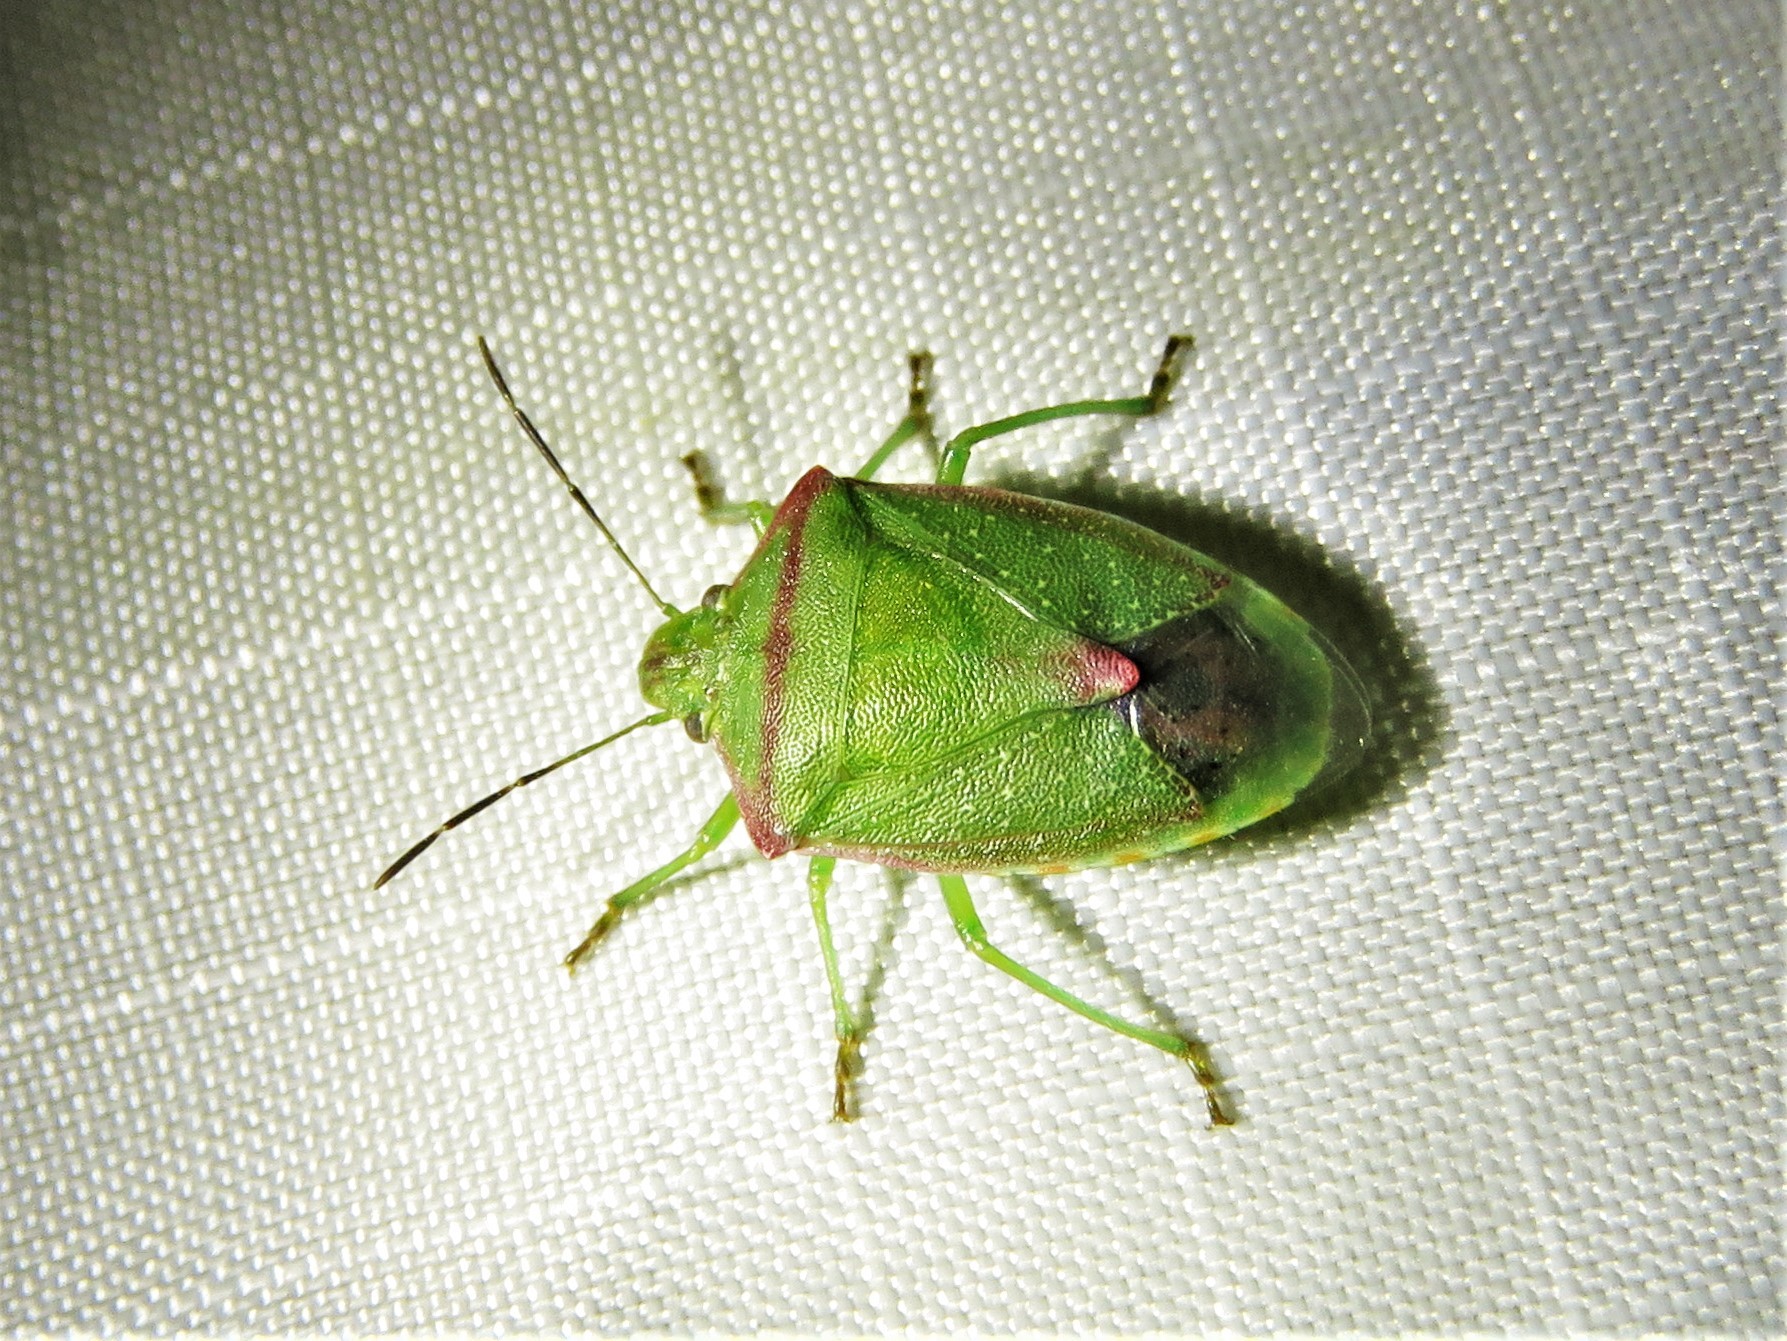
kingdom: Animalia
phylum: Arthropoda
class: Insecta
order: Hemiptera
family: Pentatomidae
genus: Thyanta
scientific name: Thyanta custator
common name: Stink bug
